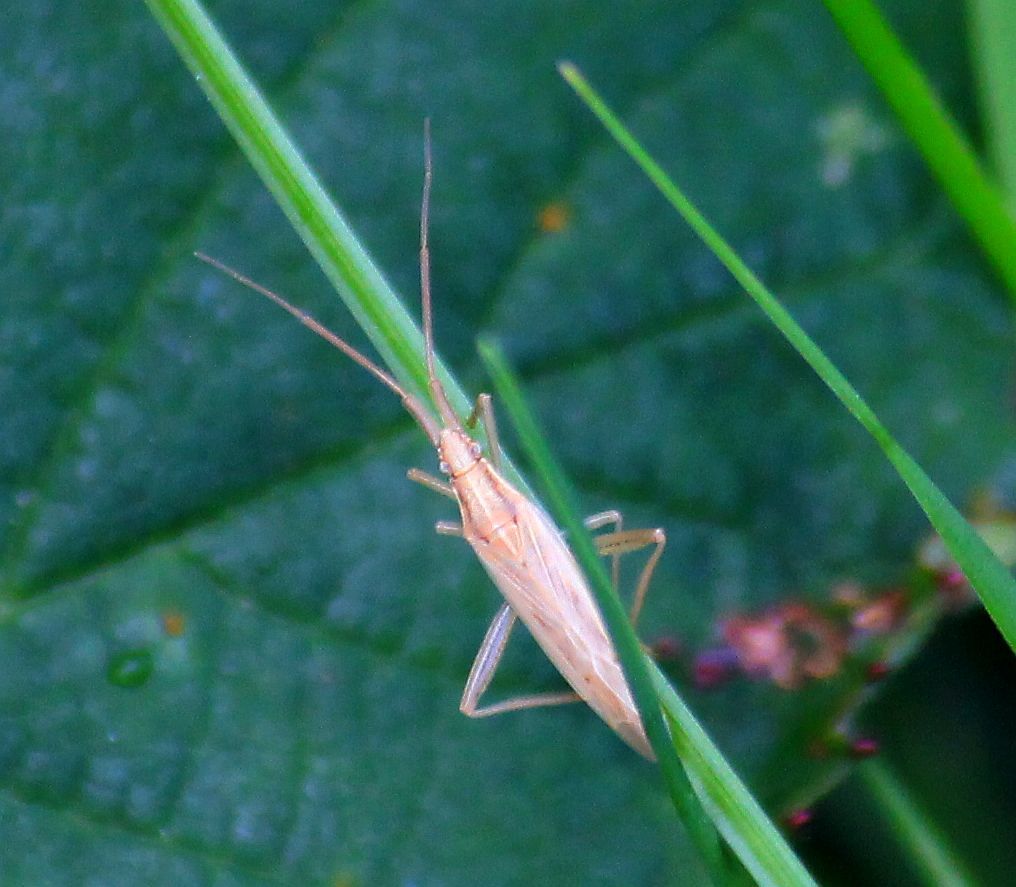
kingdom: Animalia
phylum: Arthropoda
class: Insecta
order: Hemiptera
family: Miridae
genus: Stenodema
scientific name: Stenodema laevigata
